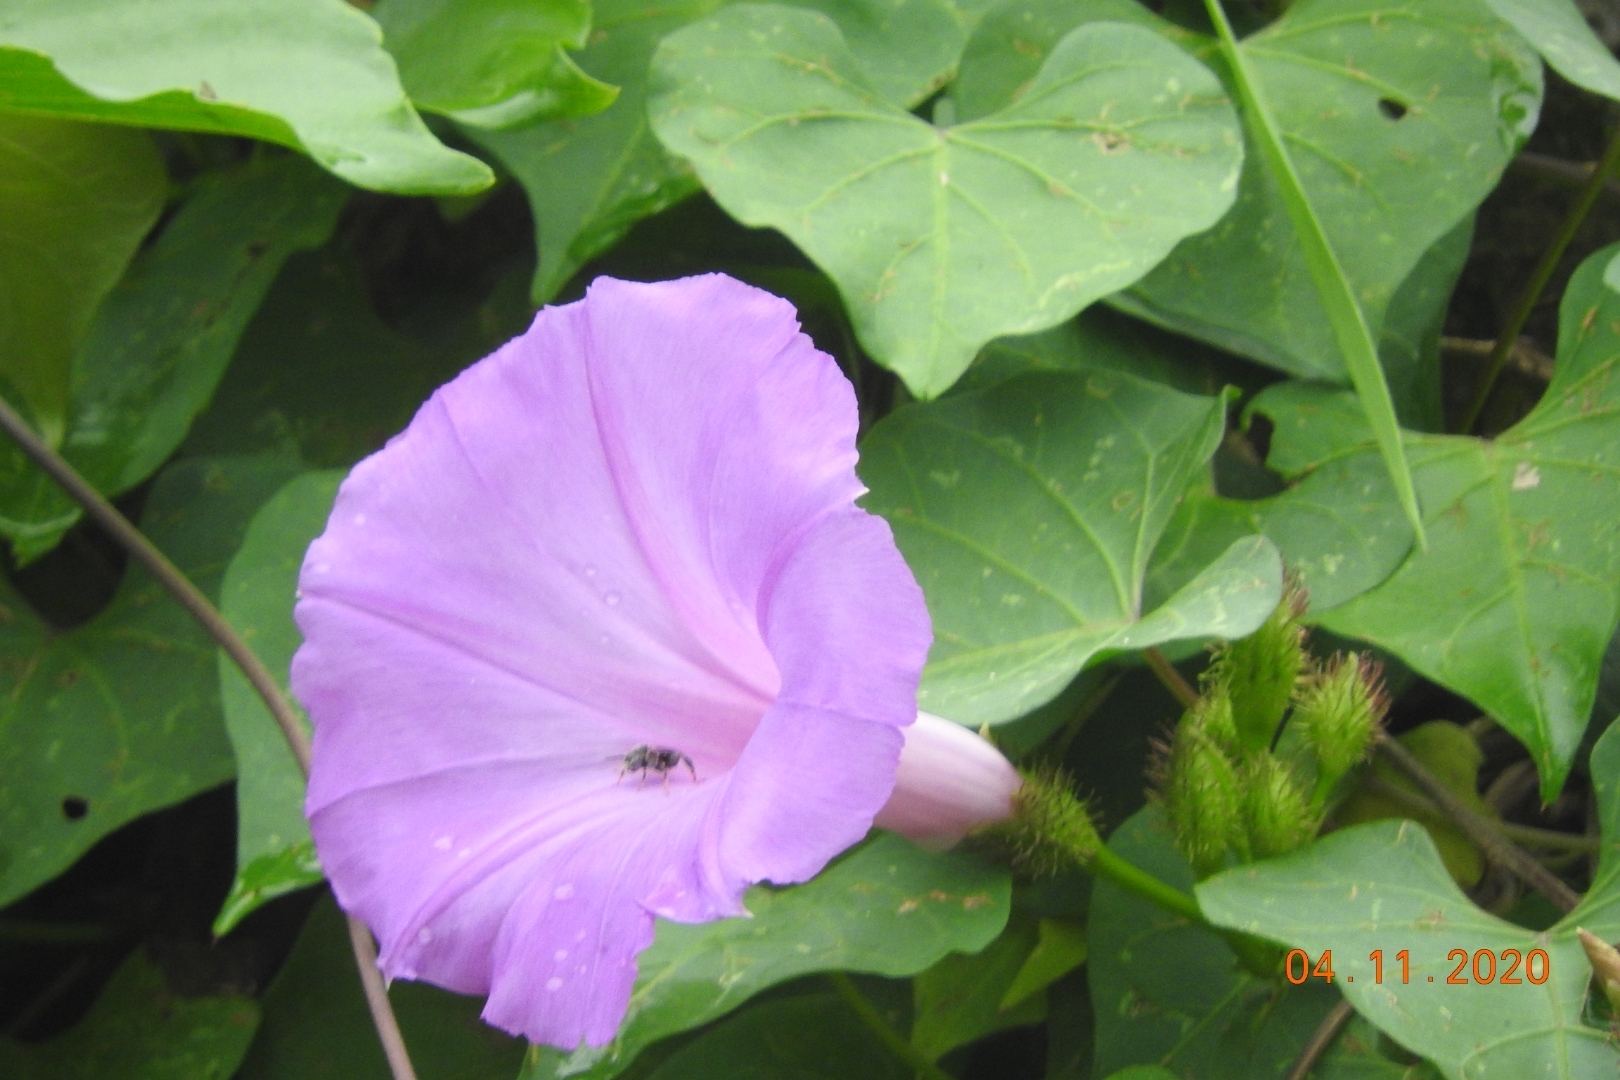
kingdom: Plantae
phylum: Tracheophyta
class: Magnoliopsida
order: Solanales
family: Convolvulaceae
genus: Ipomoea
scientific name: Ipomoea crinicalyx
